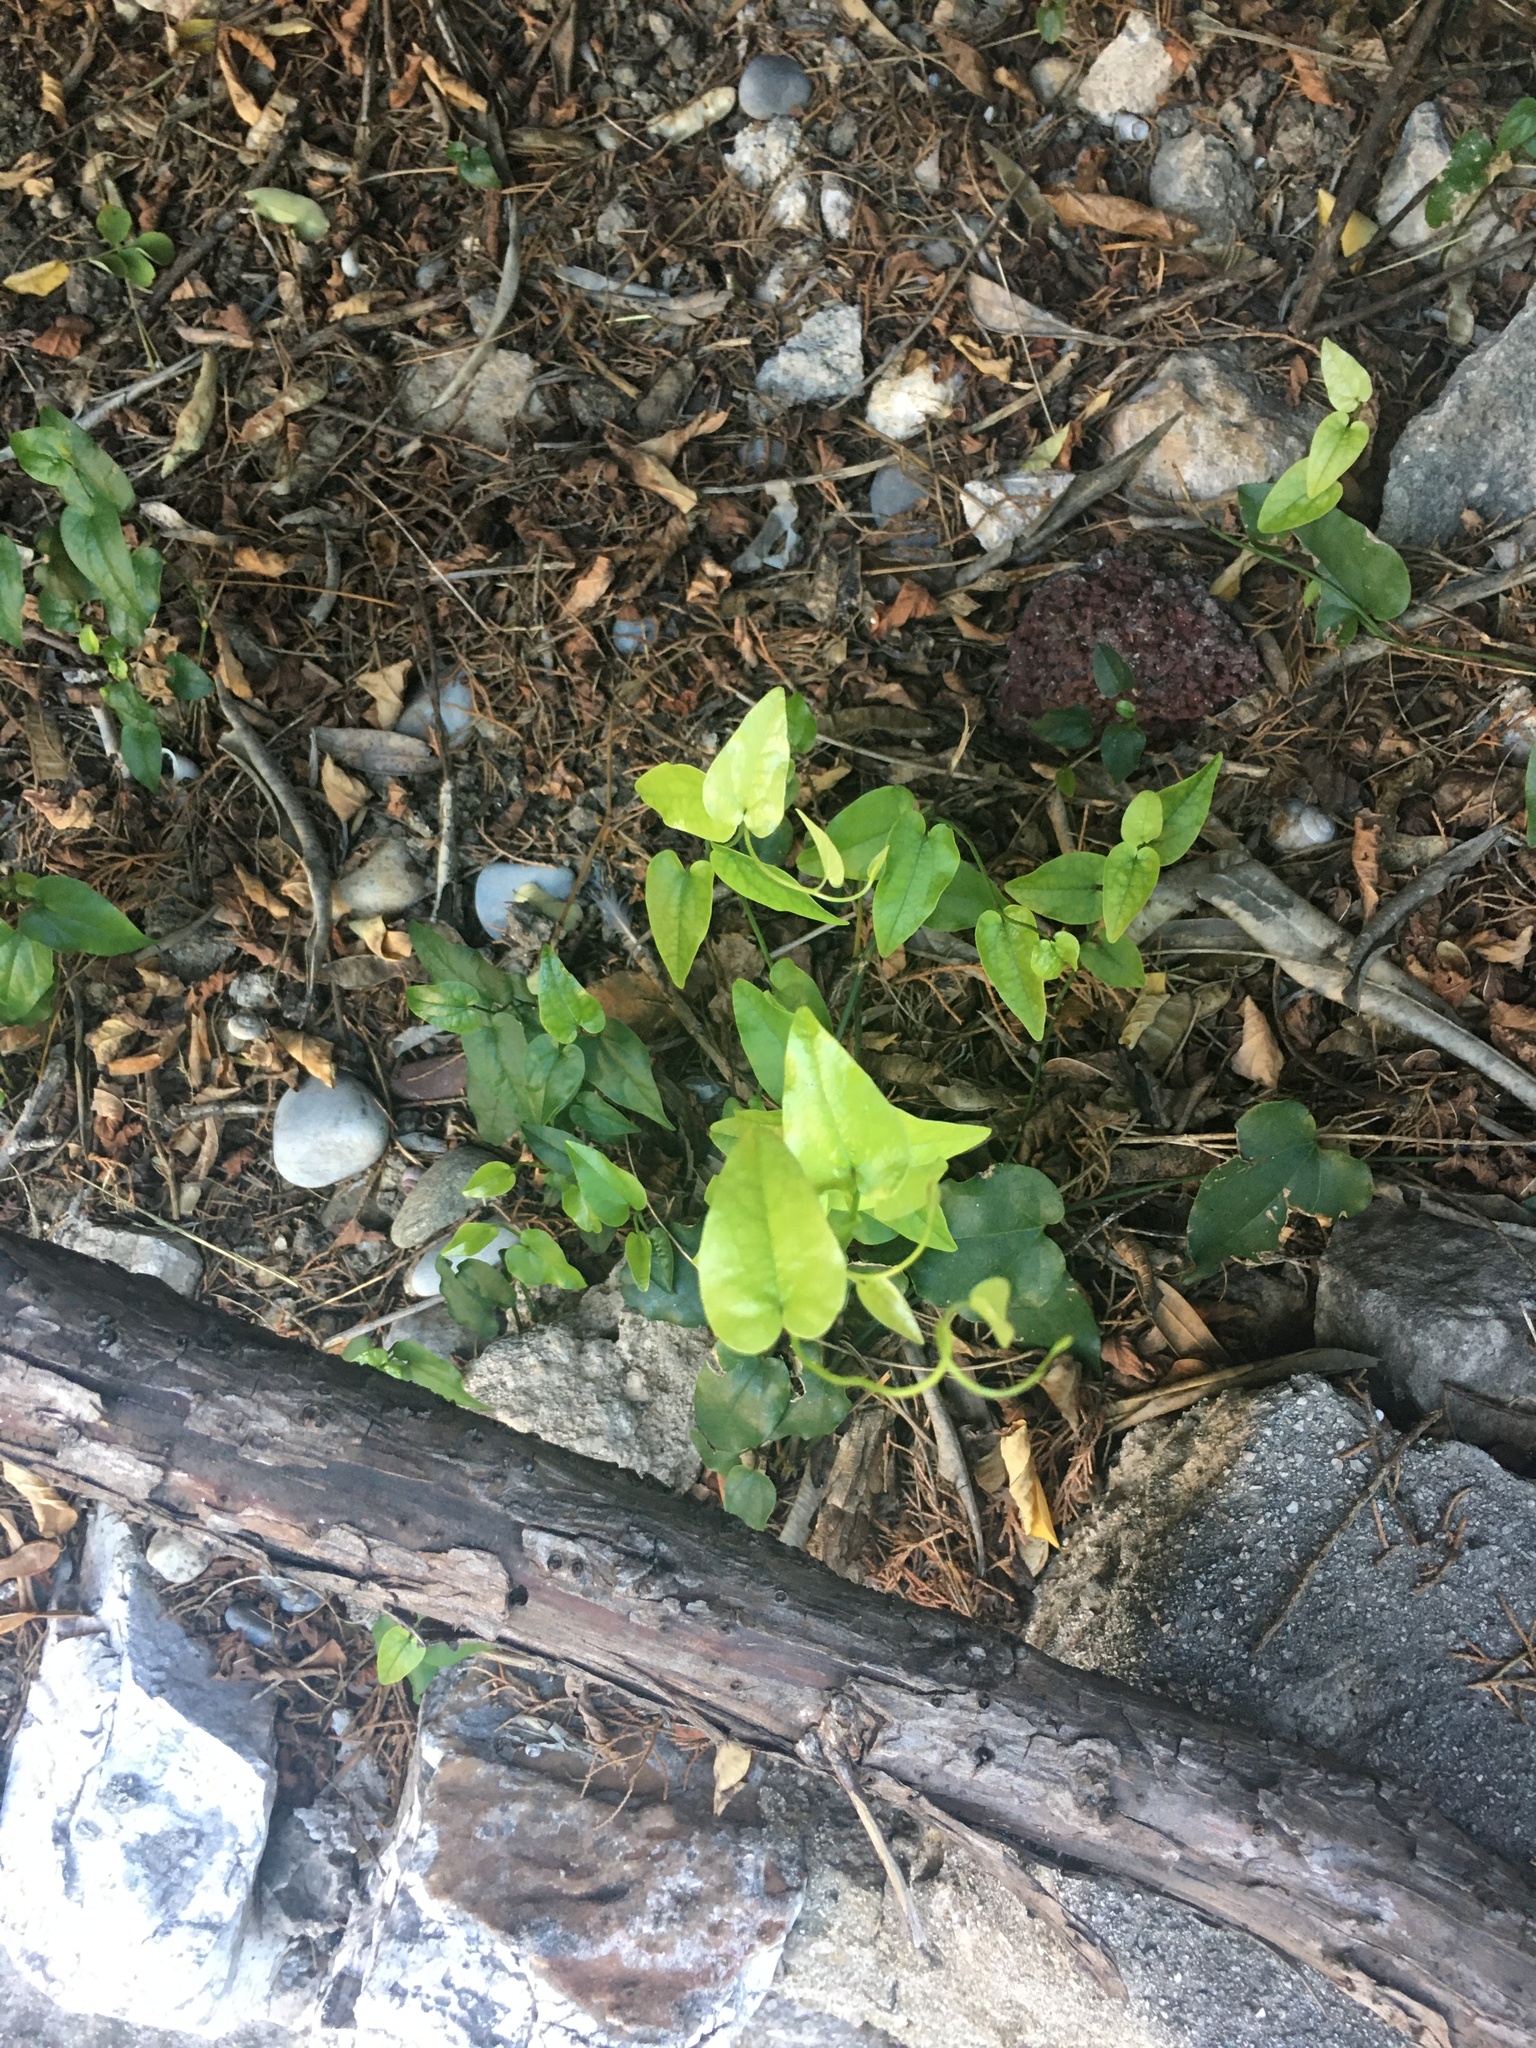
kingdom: Plantae
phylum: Tracheophyta
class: Liliopsida
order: Liliales
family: Smilacaceae
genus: Smilax
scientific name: Smilax aspera
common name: Common smilax
